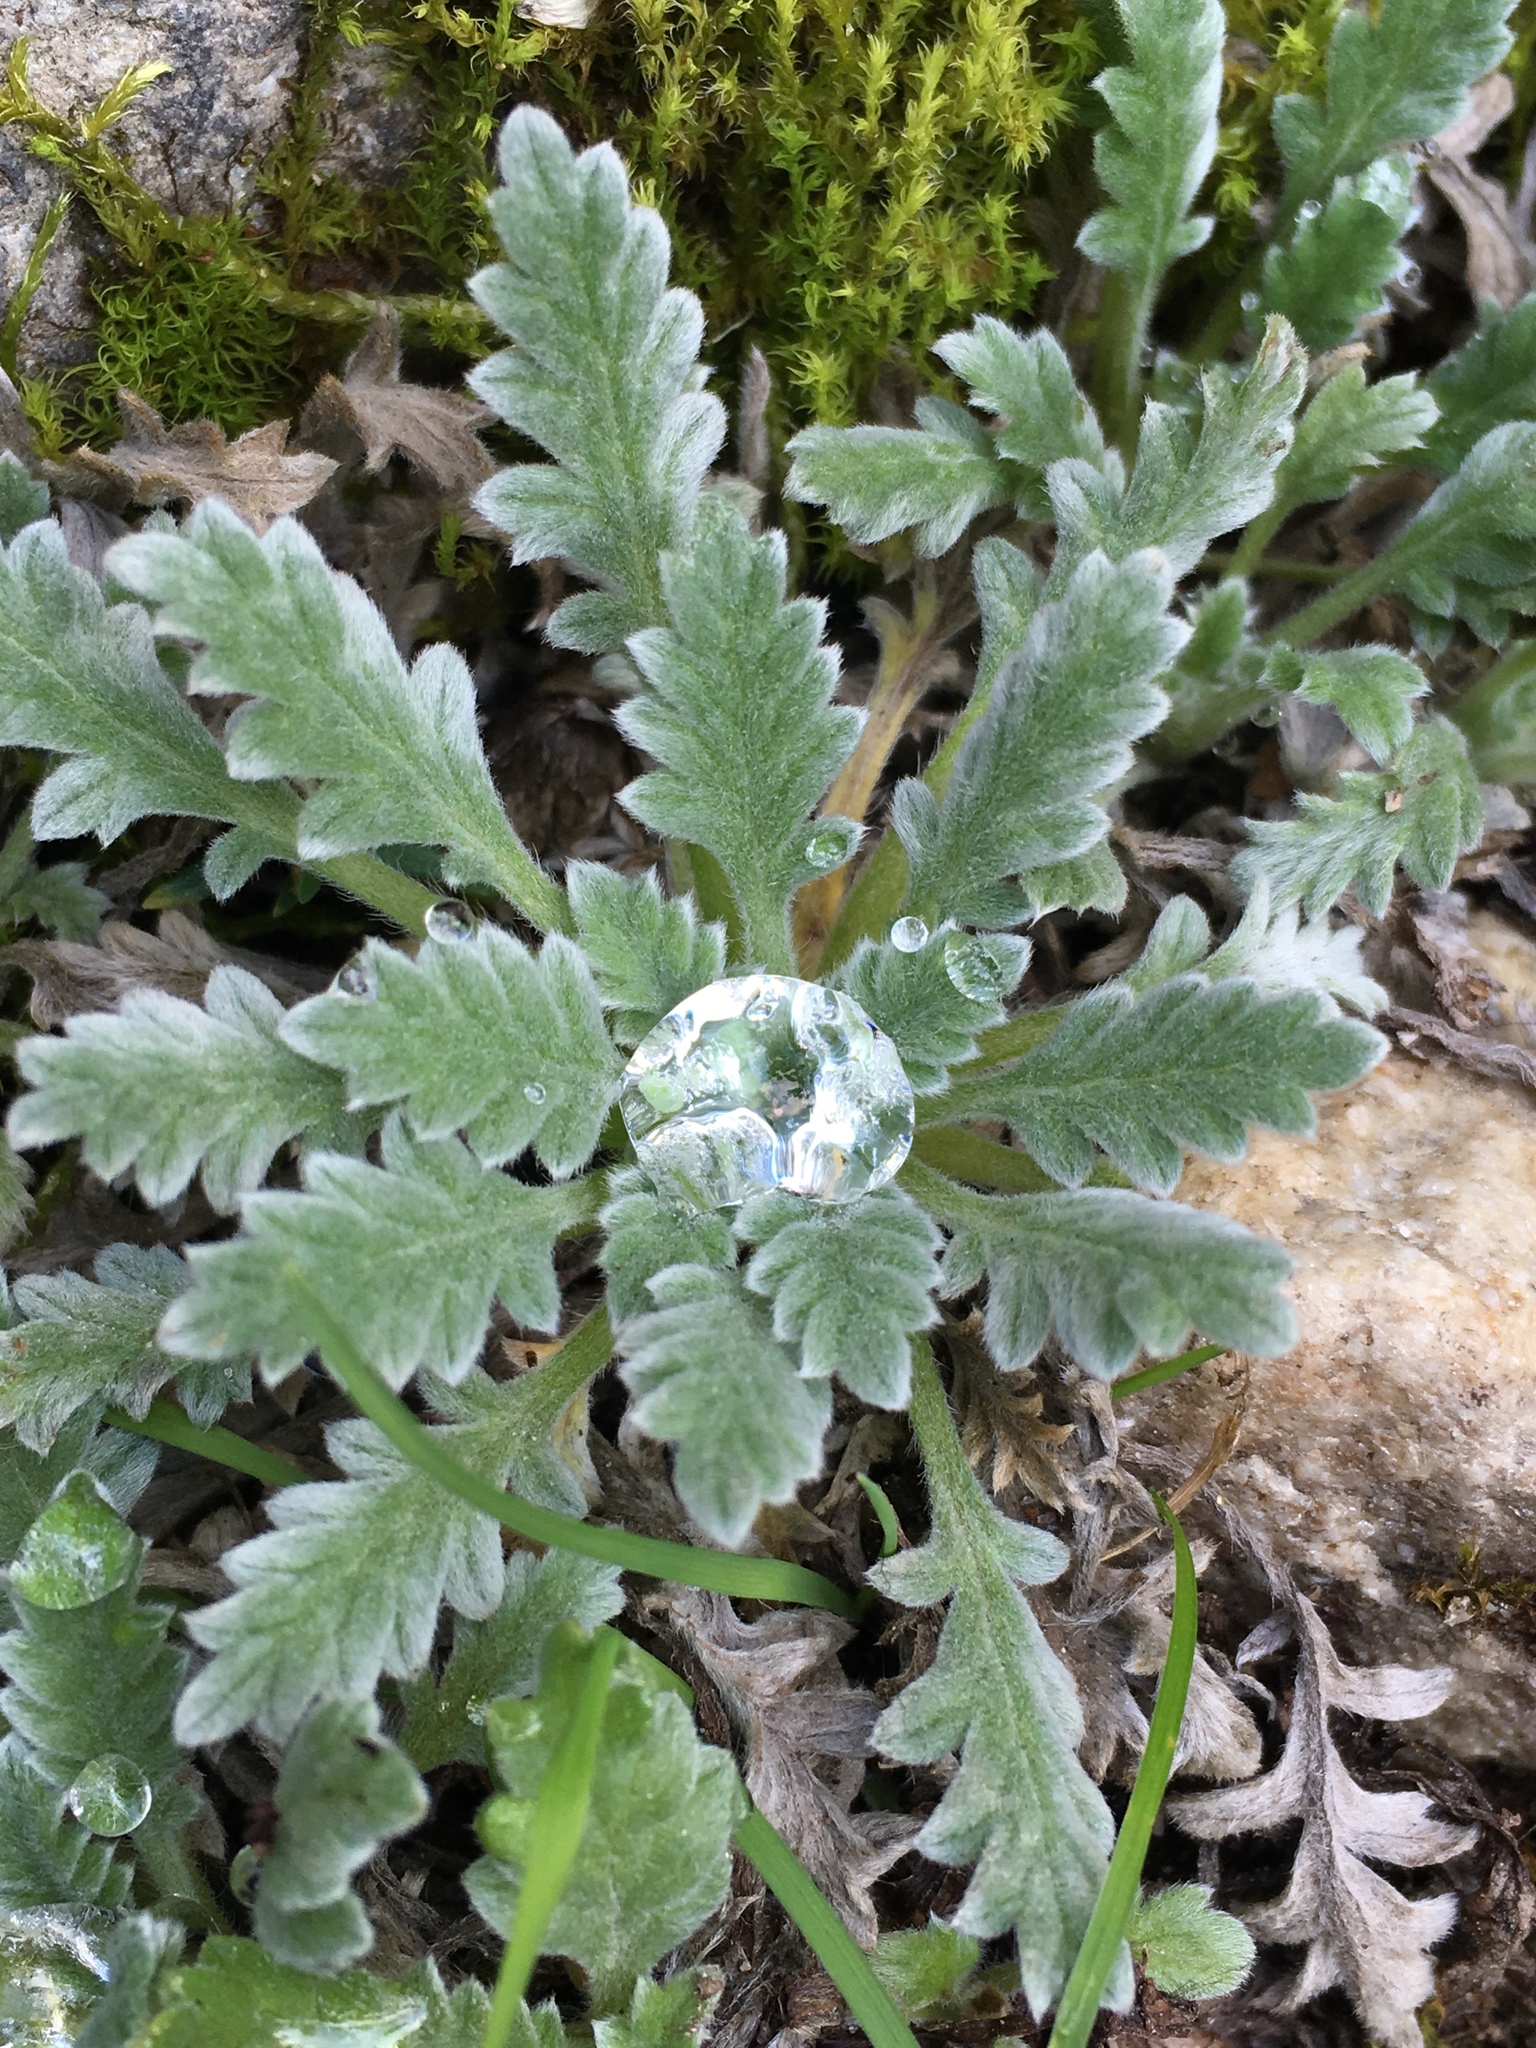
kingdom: Plantae
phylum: Tracheophyta
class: Magnoliopsida
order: Boraginales
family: Hydrophyllaceae
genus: Phacelia
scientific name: Phacelia sericea
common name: Silky phacelia
